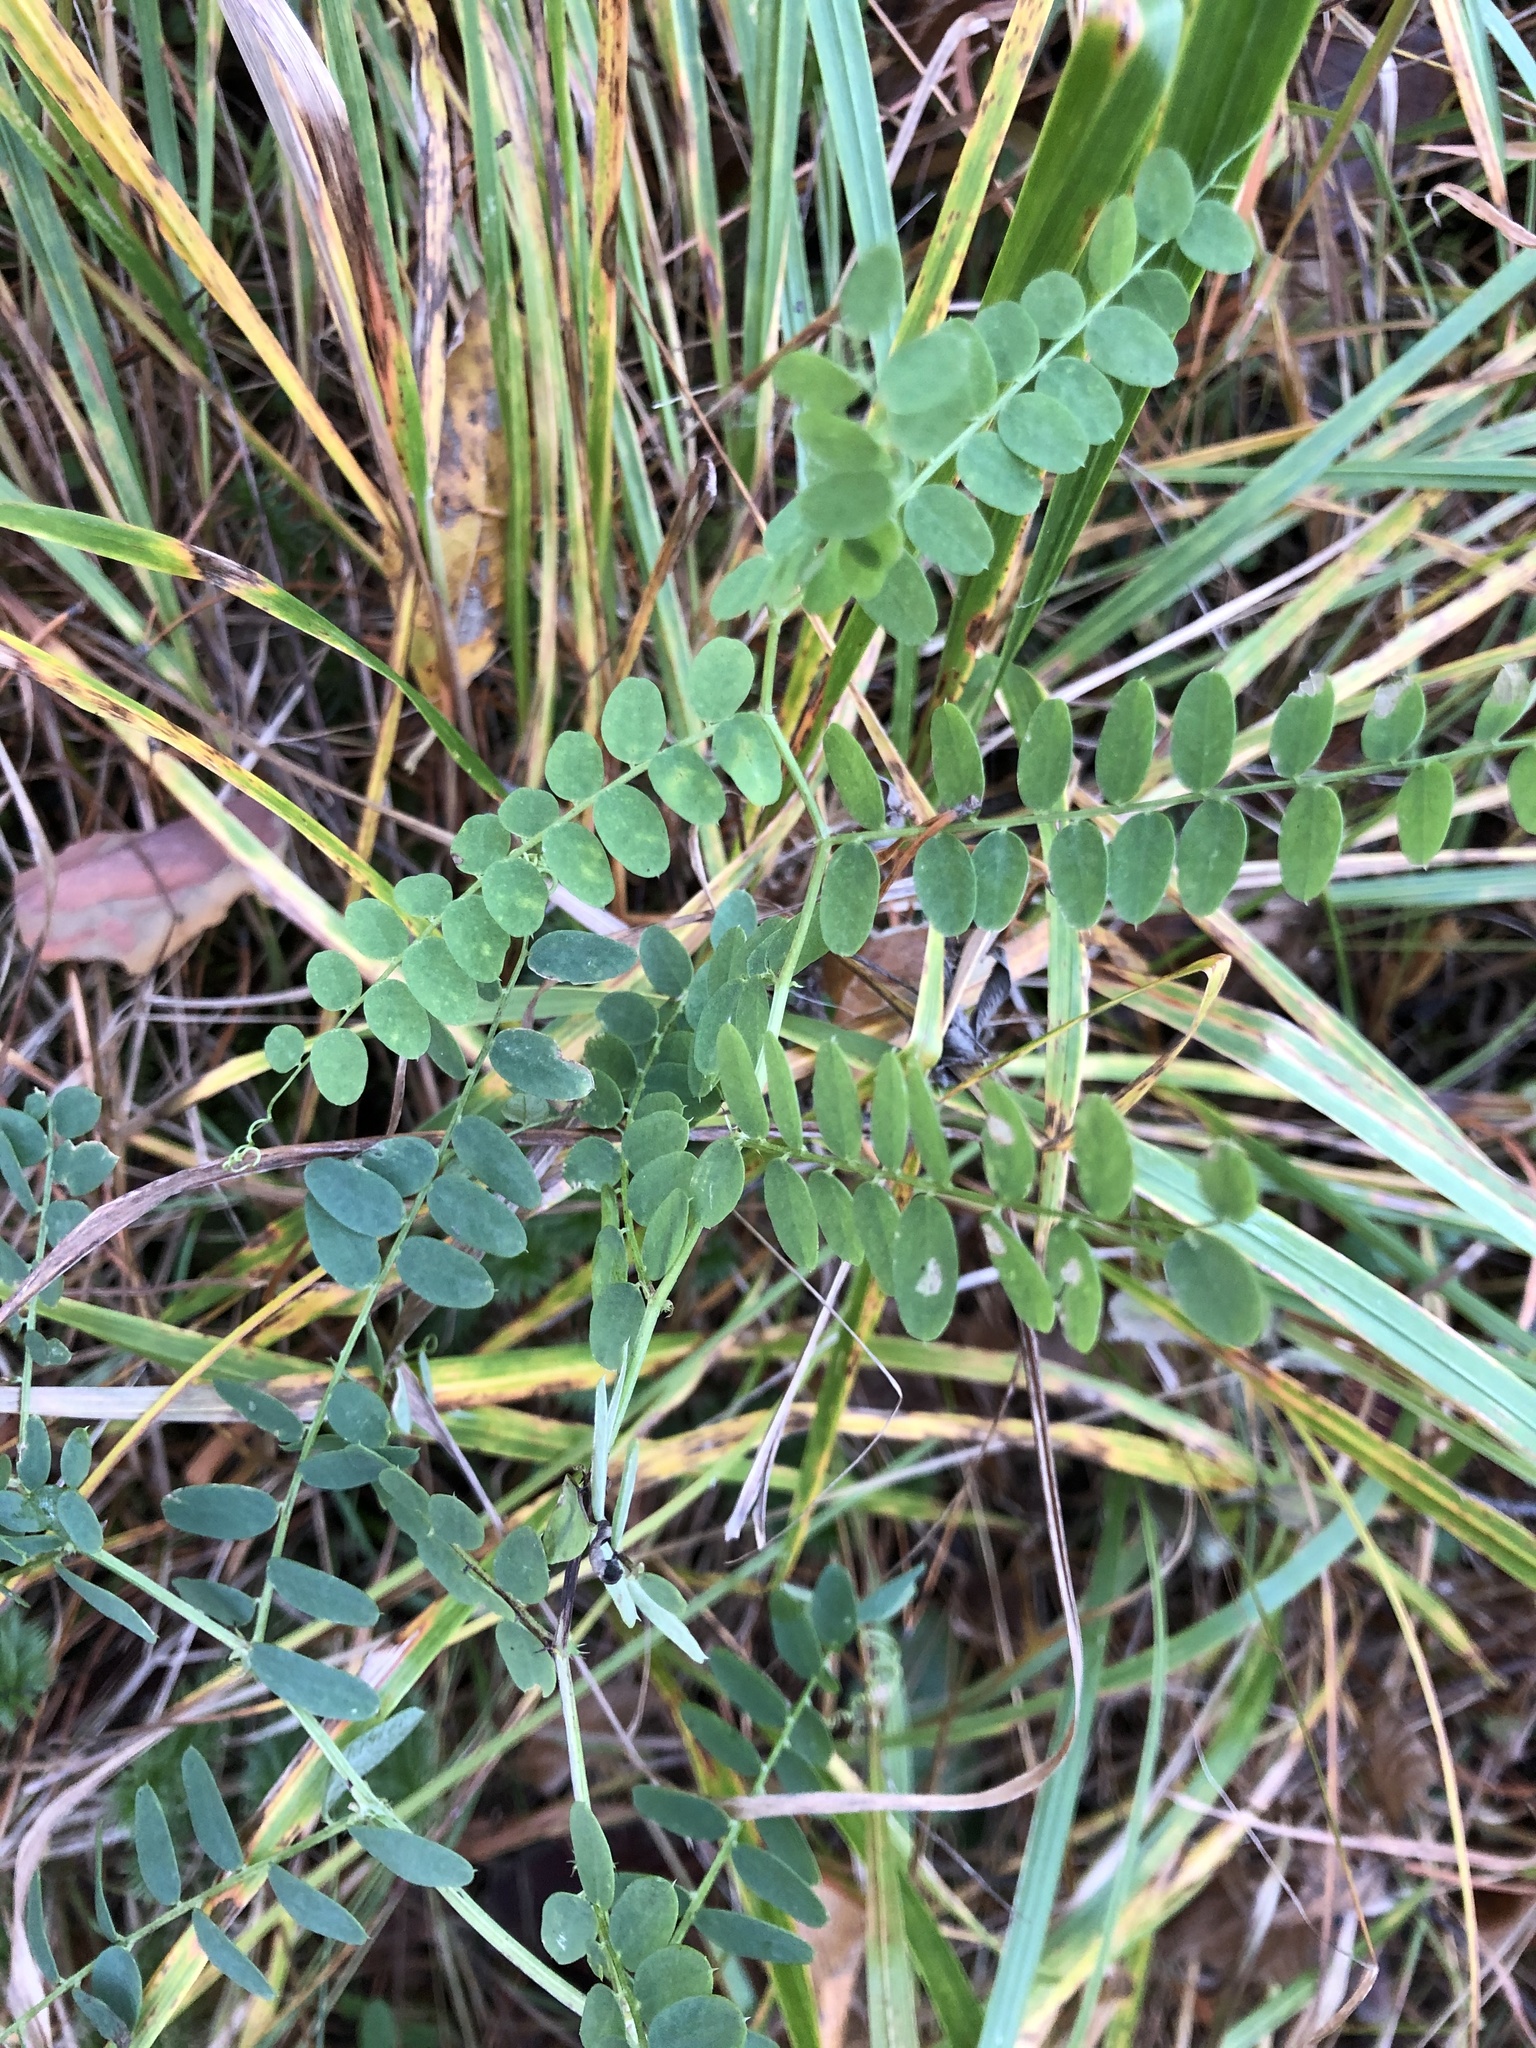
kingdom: Plantae
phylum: Tracheophyta
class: Magnoliopsida
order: Fabales
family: Fabaceae
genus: Vicia
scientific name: Vicia sylvatica
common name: Wood vetch
